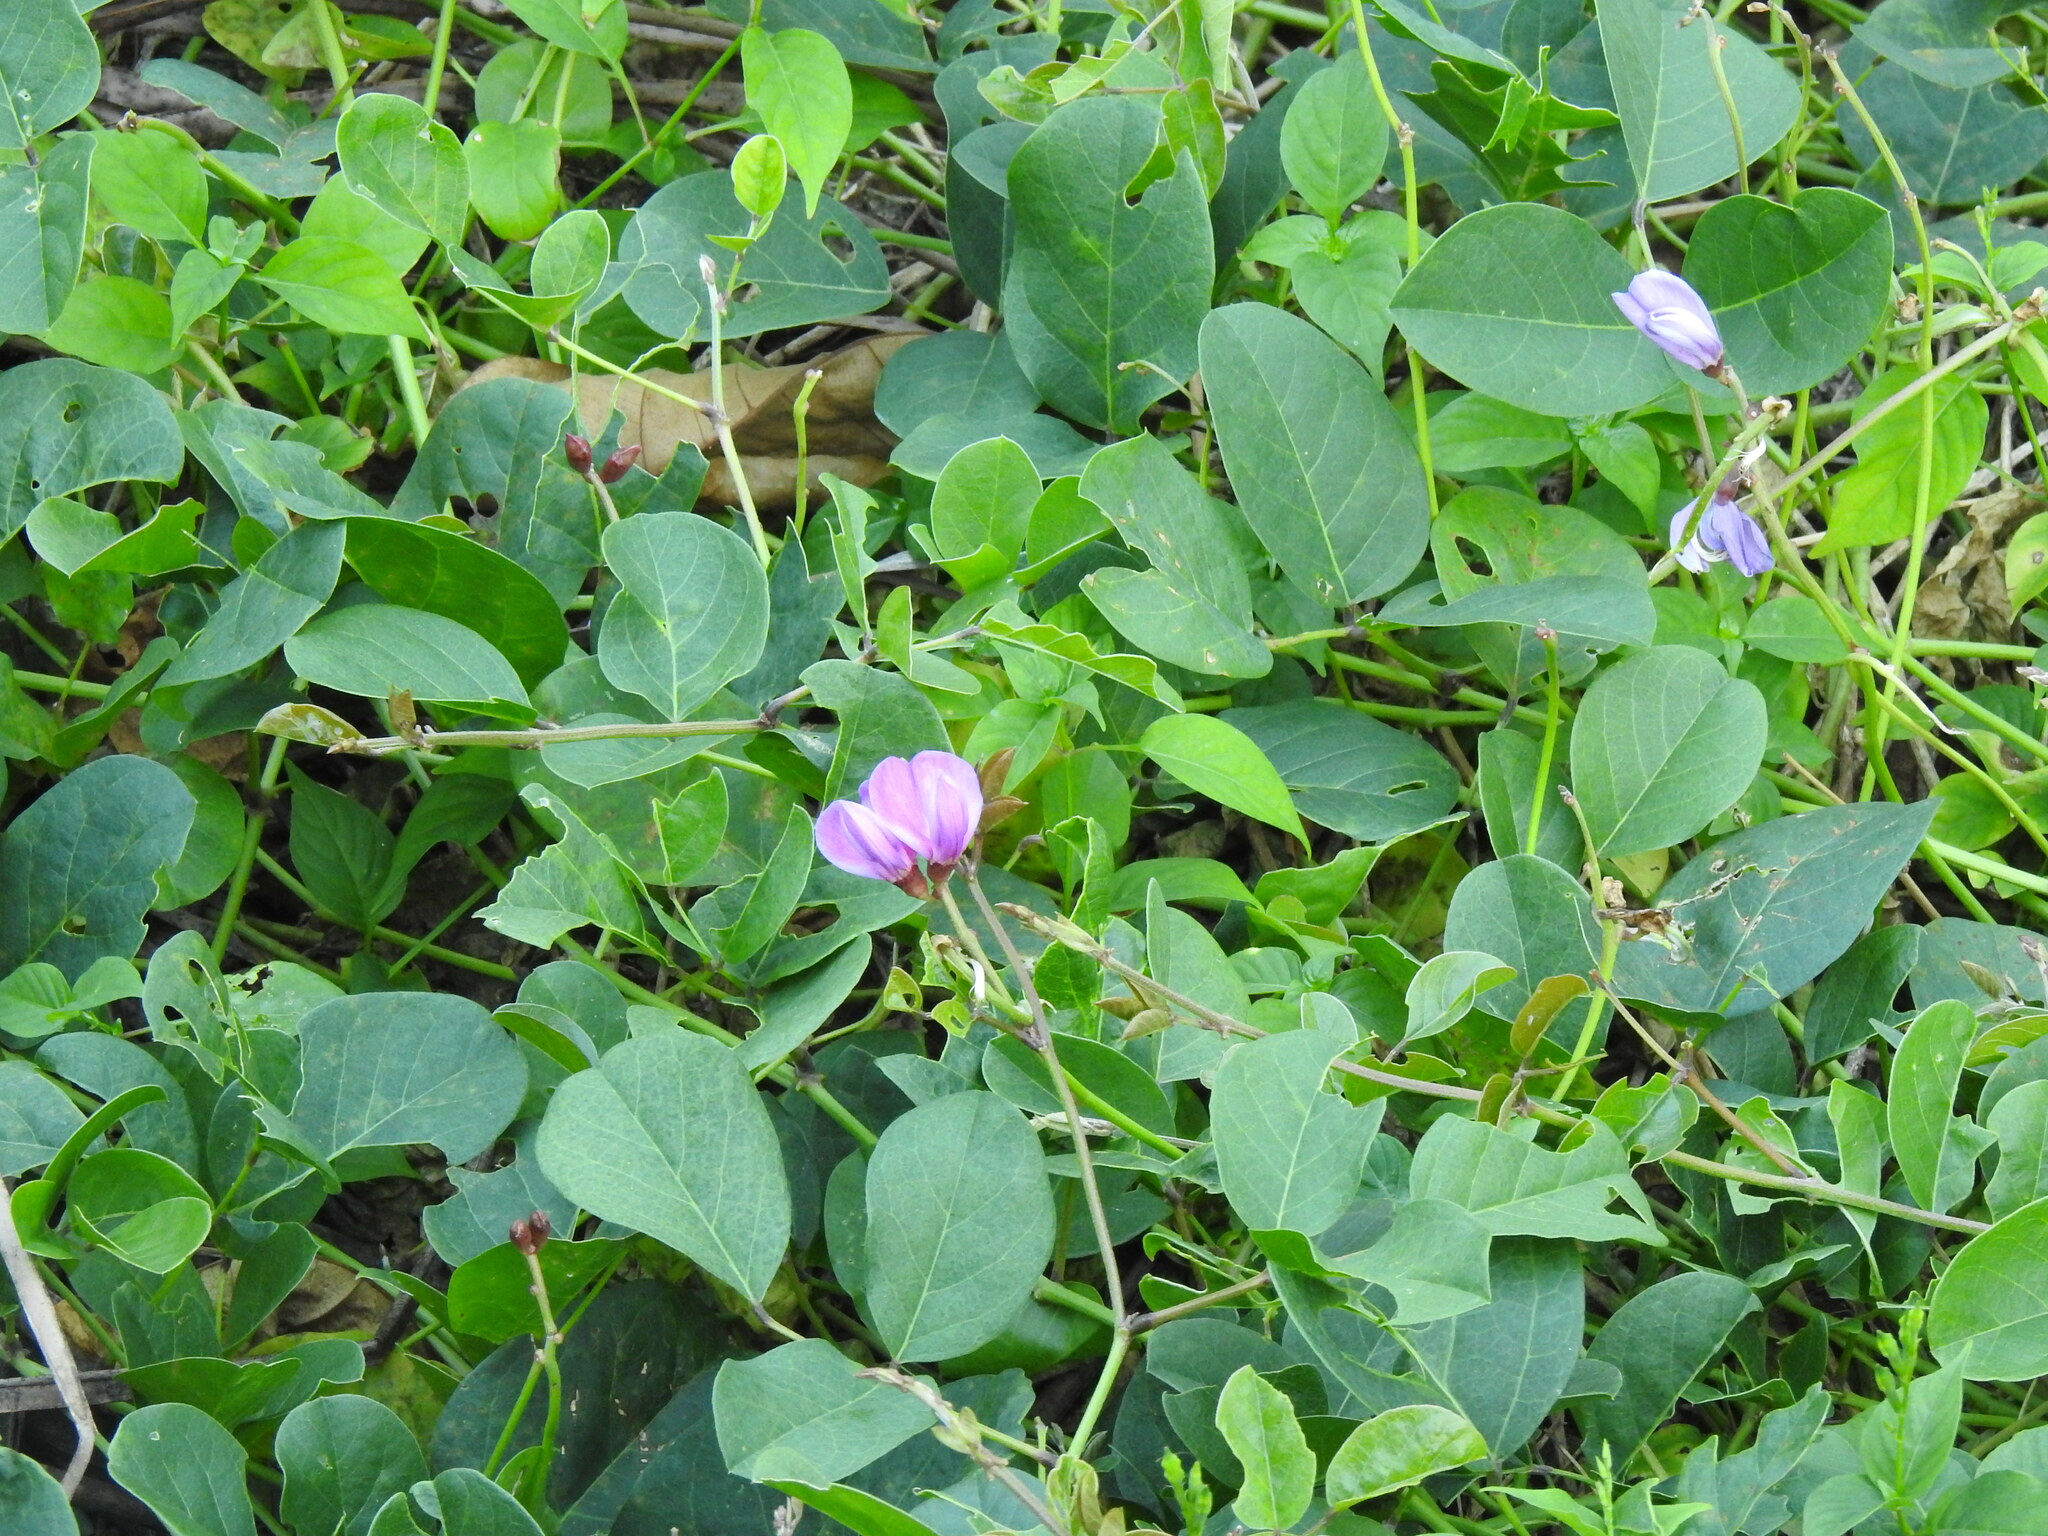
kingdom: Plantae
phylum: Tracheophyta
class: Magnoliopsida
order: Fabales
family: Fabaceae
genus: Canavalia
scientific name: Canavalia rosea
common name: Beach-bean
